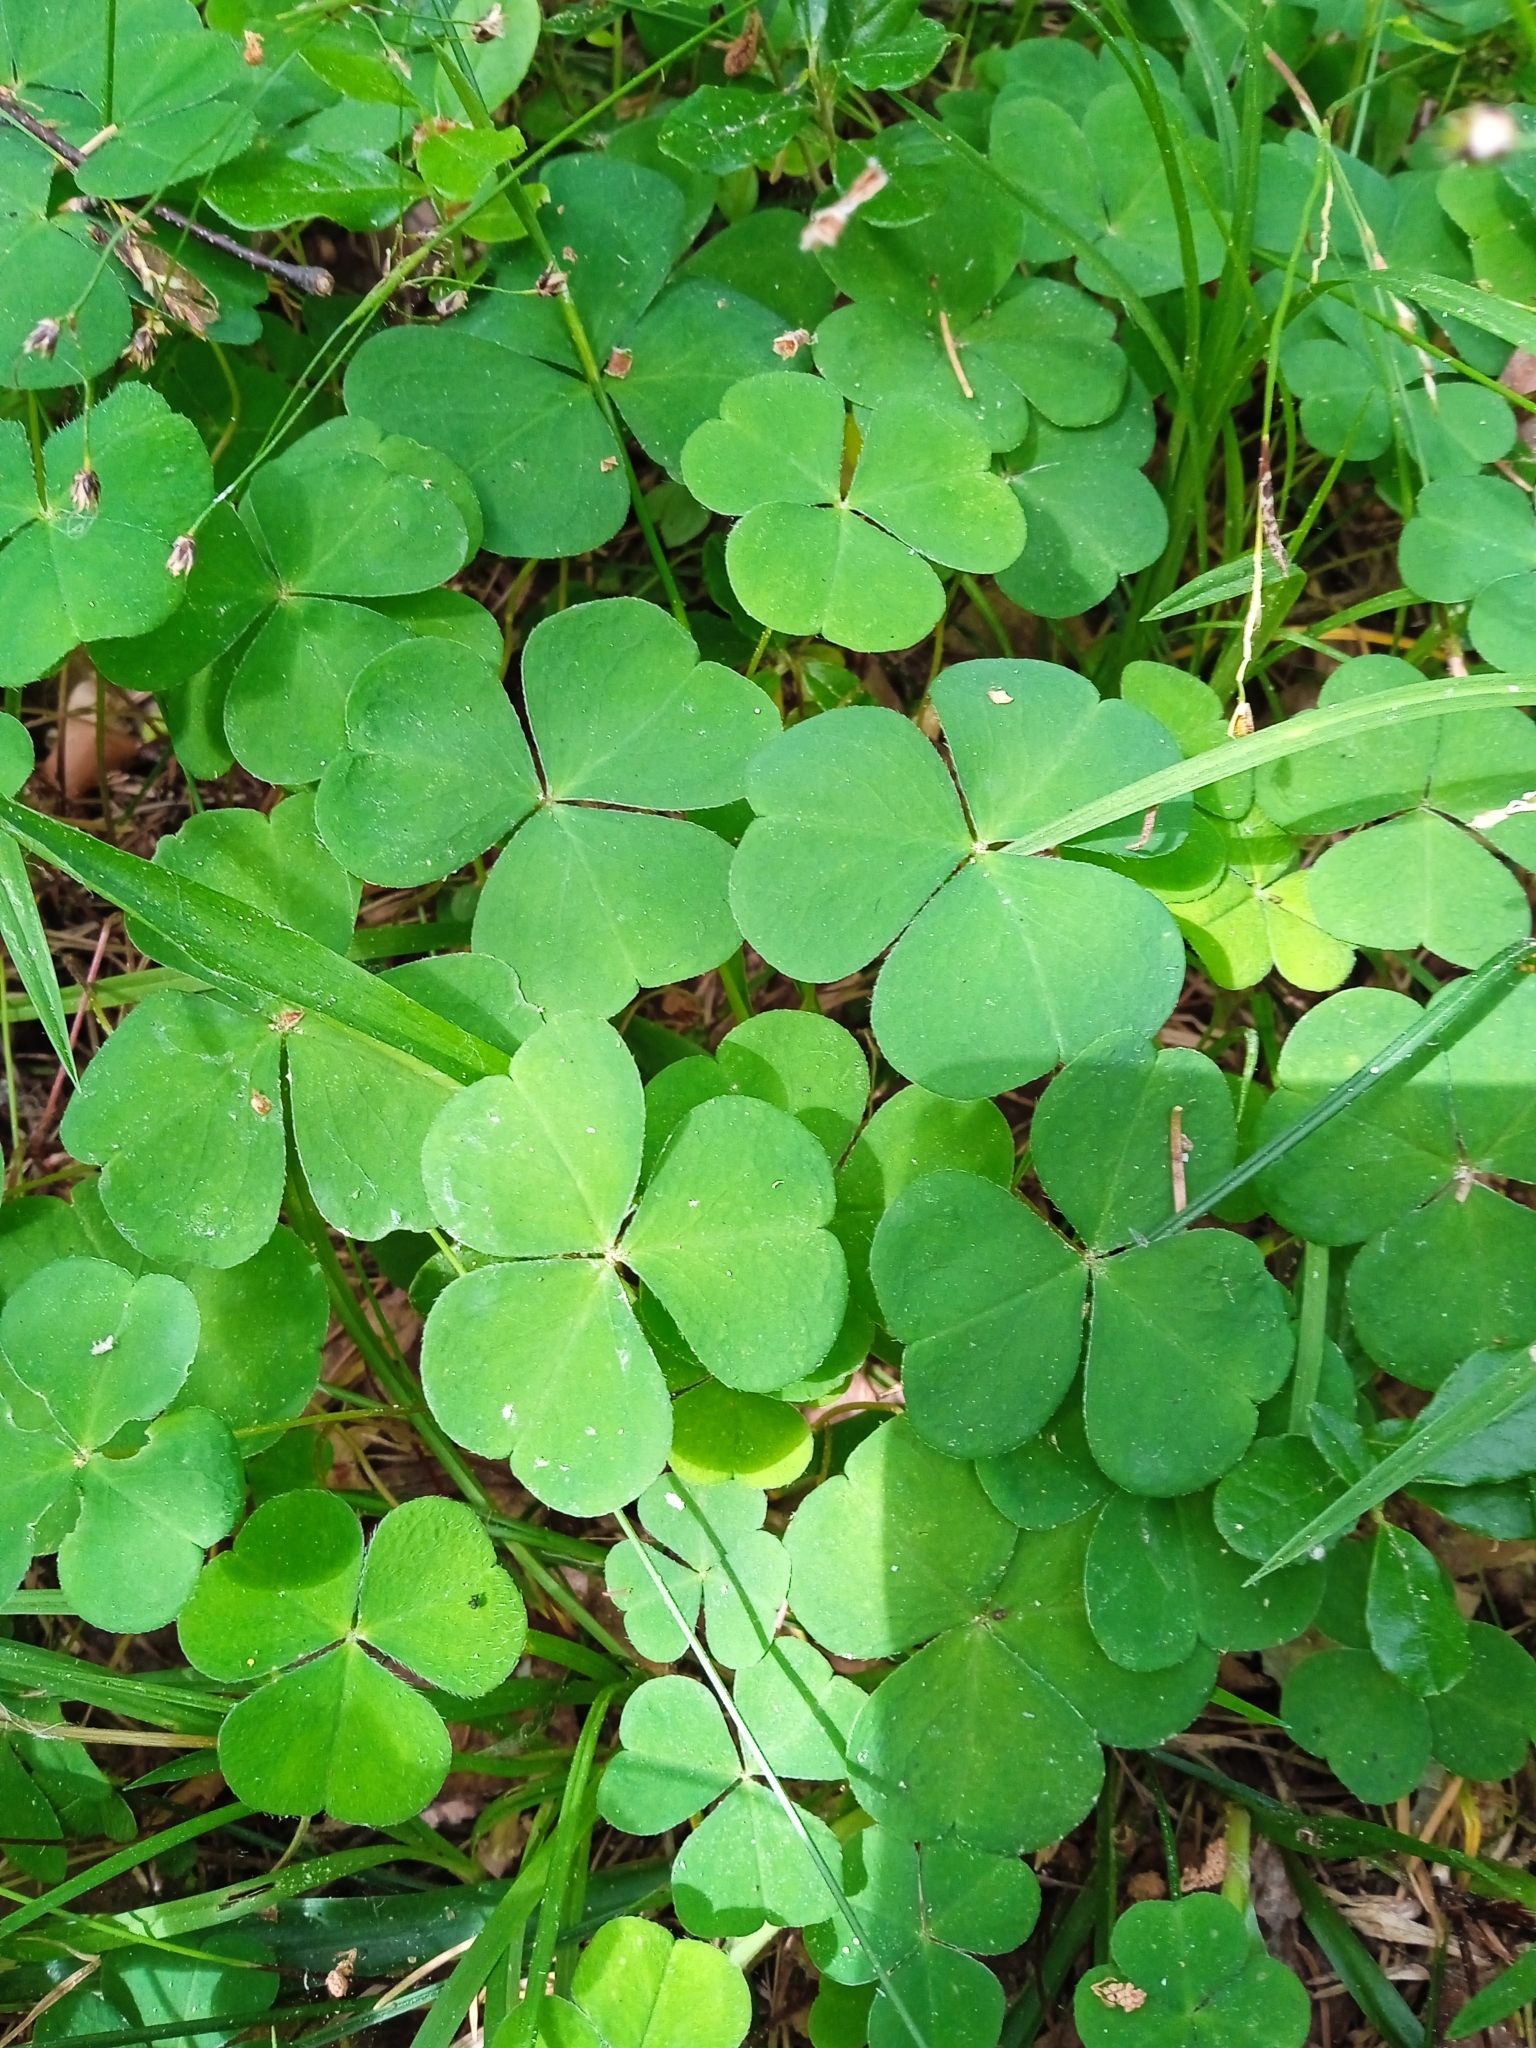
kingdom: Plantae
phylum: Tracheophyta
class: Magnoliopsida
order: Oxalidales
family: Oxalidaceae
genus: Oxalis
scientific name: Oxalis acetosella
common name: Wood-sorrel
